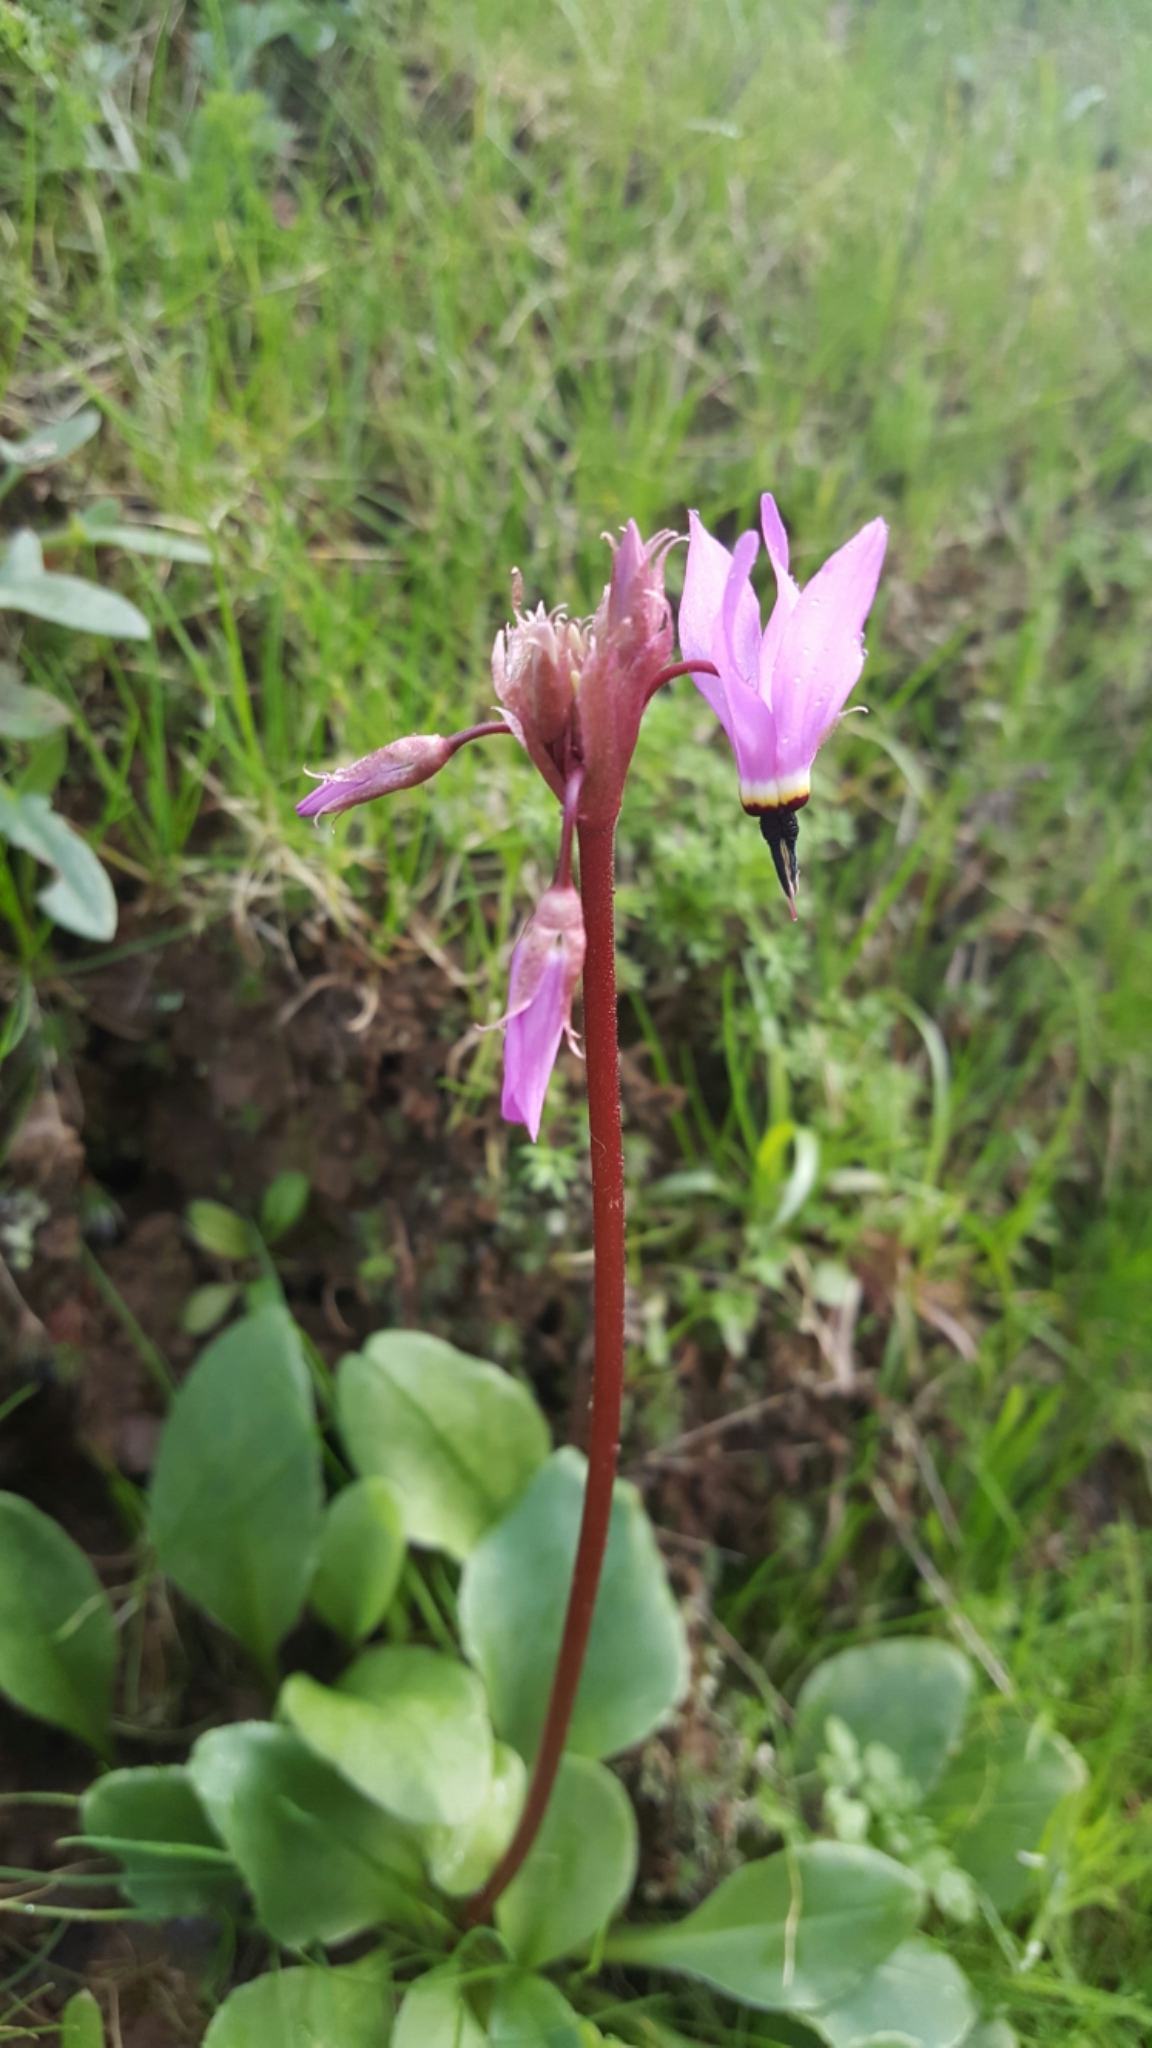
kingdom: Plantae
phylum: Tracheophyta
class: Magnoliopsida
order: Ericales
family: Primulaceae
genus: Dodecatheon
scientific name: Dodecatheon hendersonii
